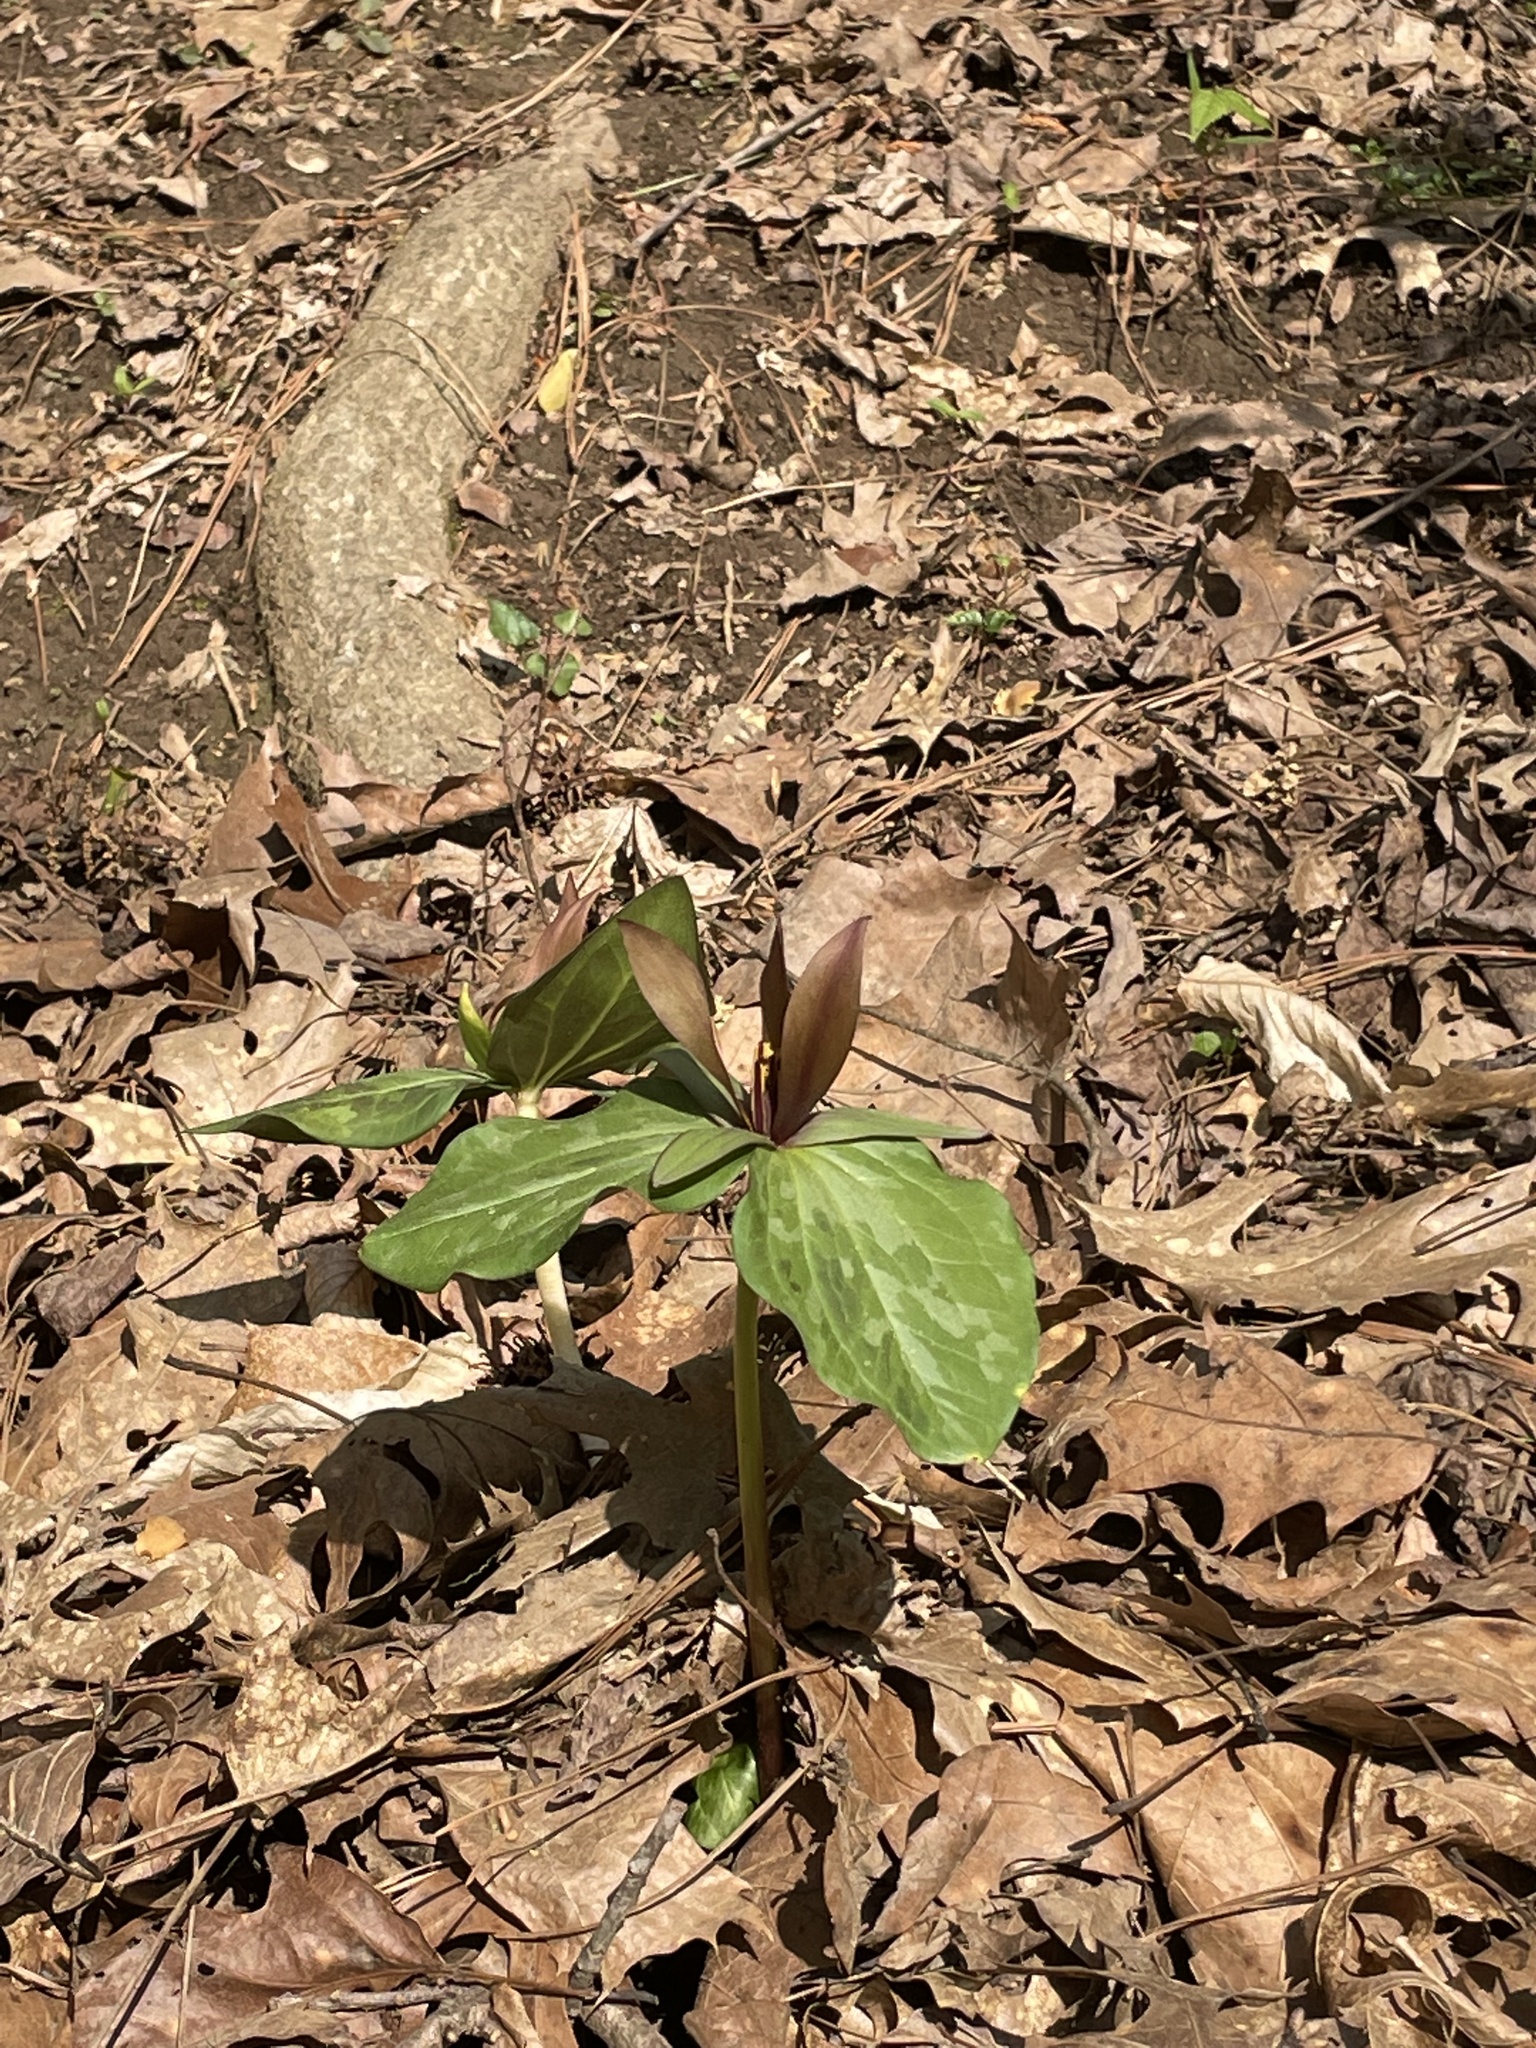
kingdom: Plantae
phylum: Tracheophyta
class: Liliopsida
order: Liliales
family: Melanthiaceae
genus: Trillium
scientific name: Trillium cuneatum
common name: Cuneate trillium
